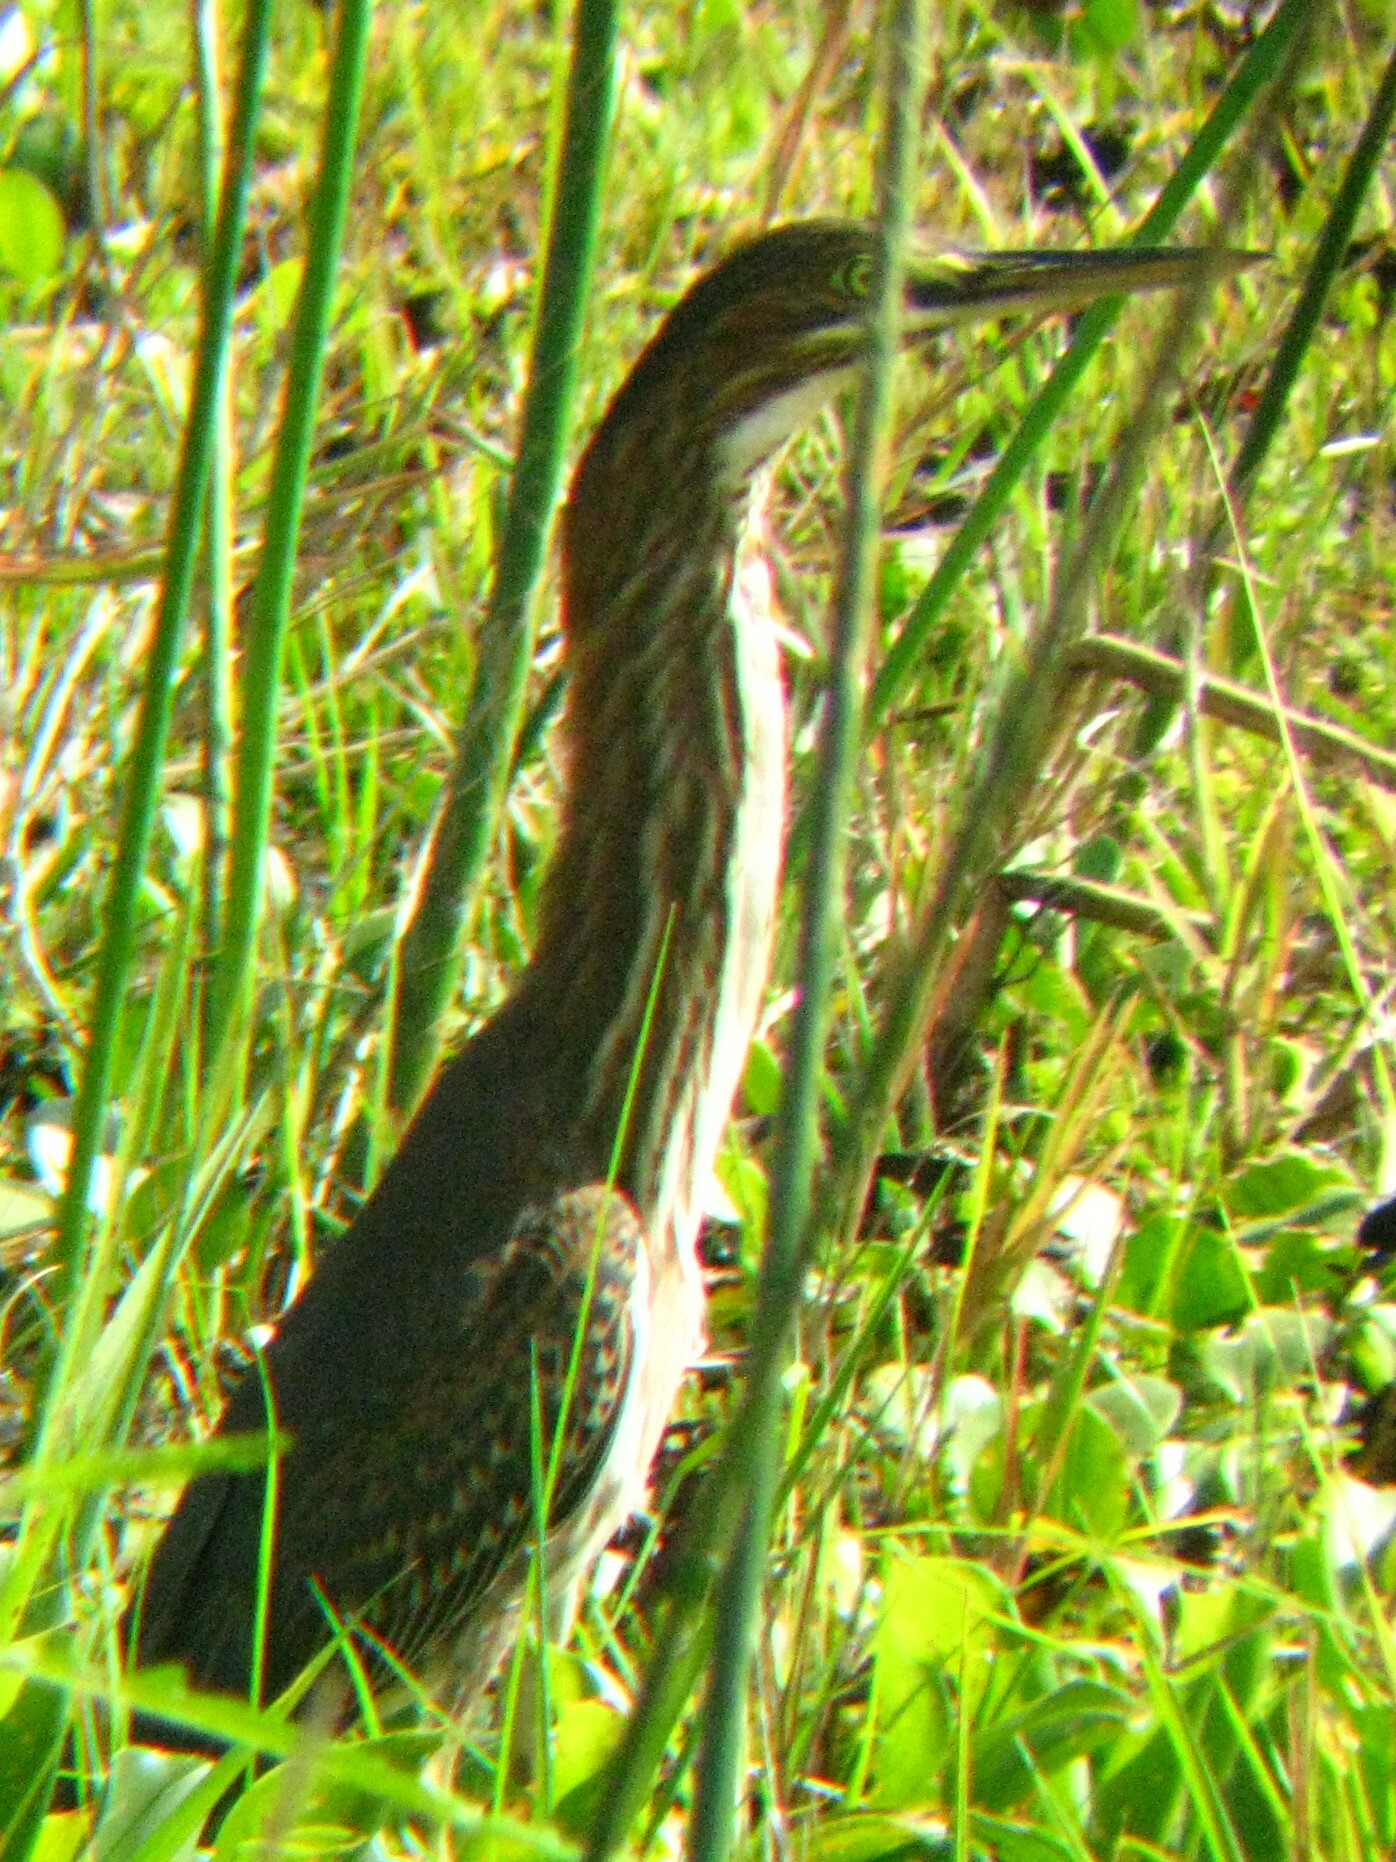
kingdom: Animalia
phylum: Chordata
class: Aves
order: Pelecaniformes
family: Ardeidae
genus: Butorides
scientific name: Butorides virescens
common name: Green heron
